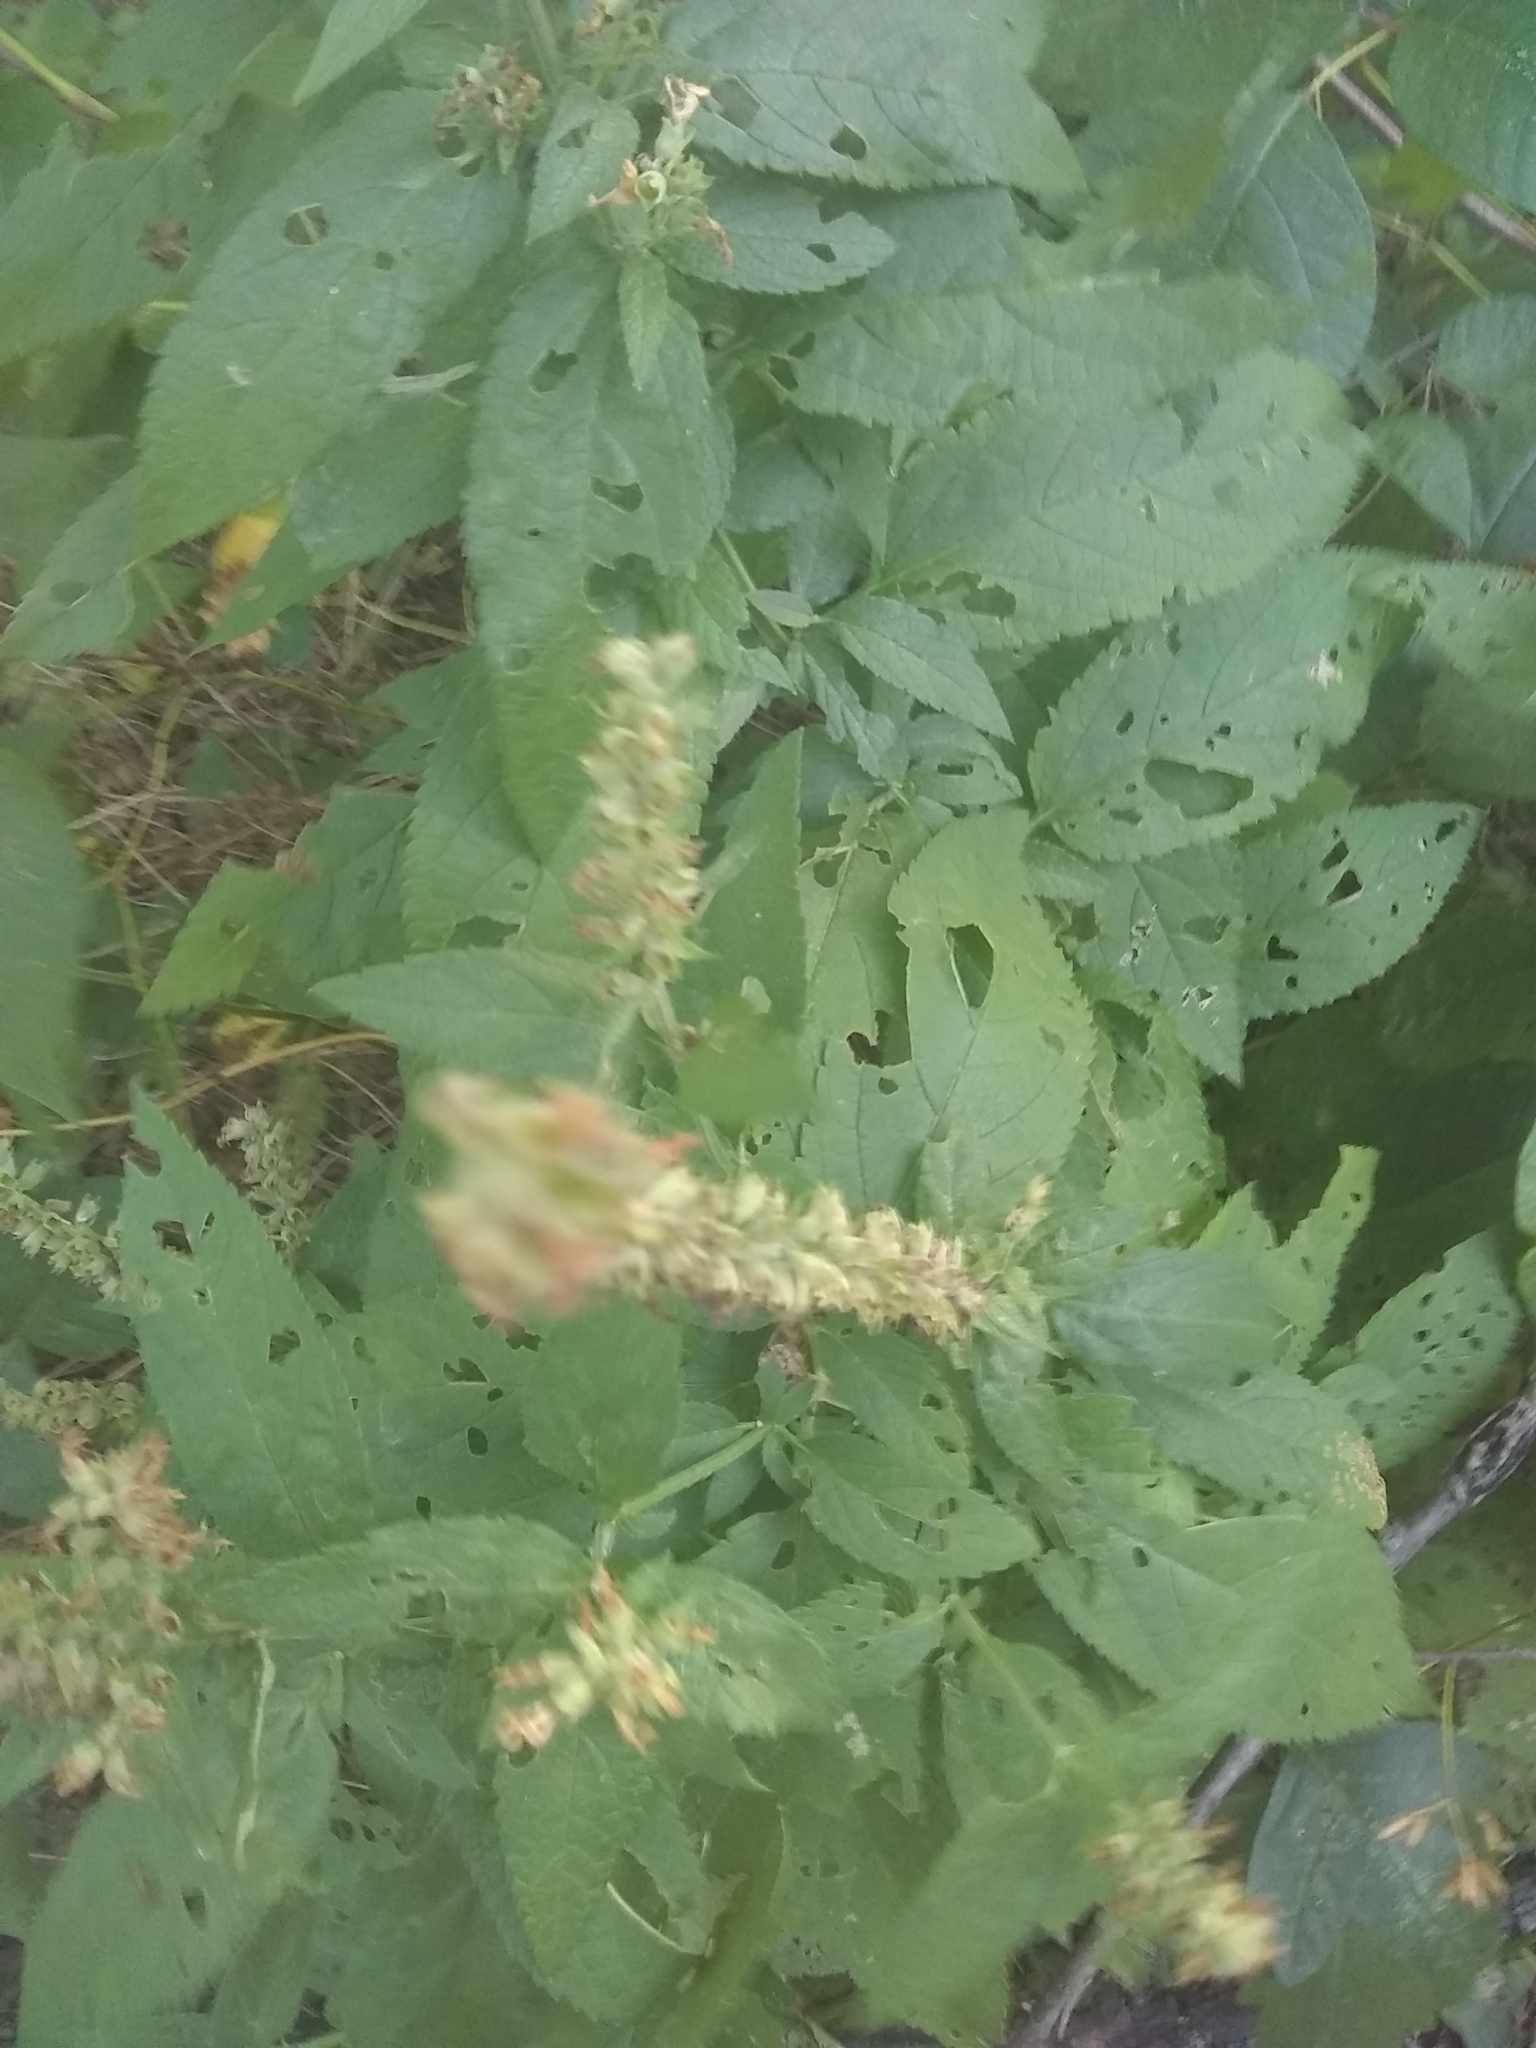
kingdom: Plantae
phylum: Tracheophyta
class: Magnoliopsida
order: Lamiales
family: Lamiaceae
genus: Teucrium
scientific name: Teucrium canadense
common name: American germander
